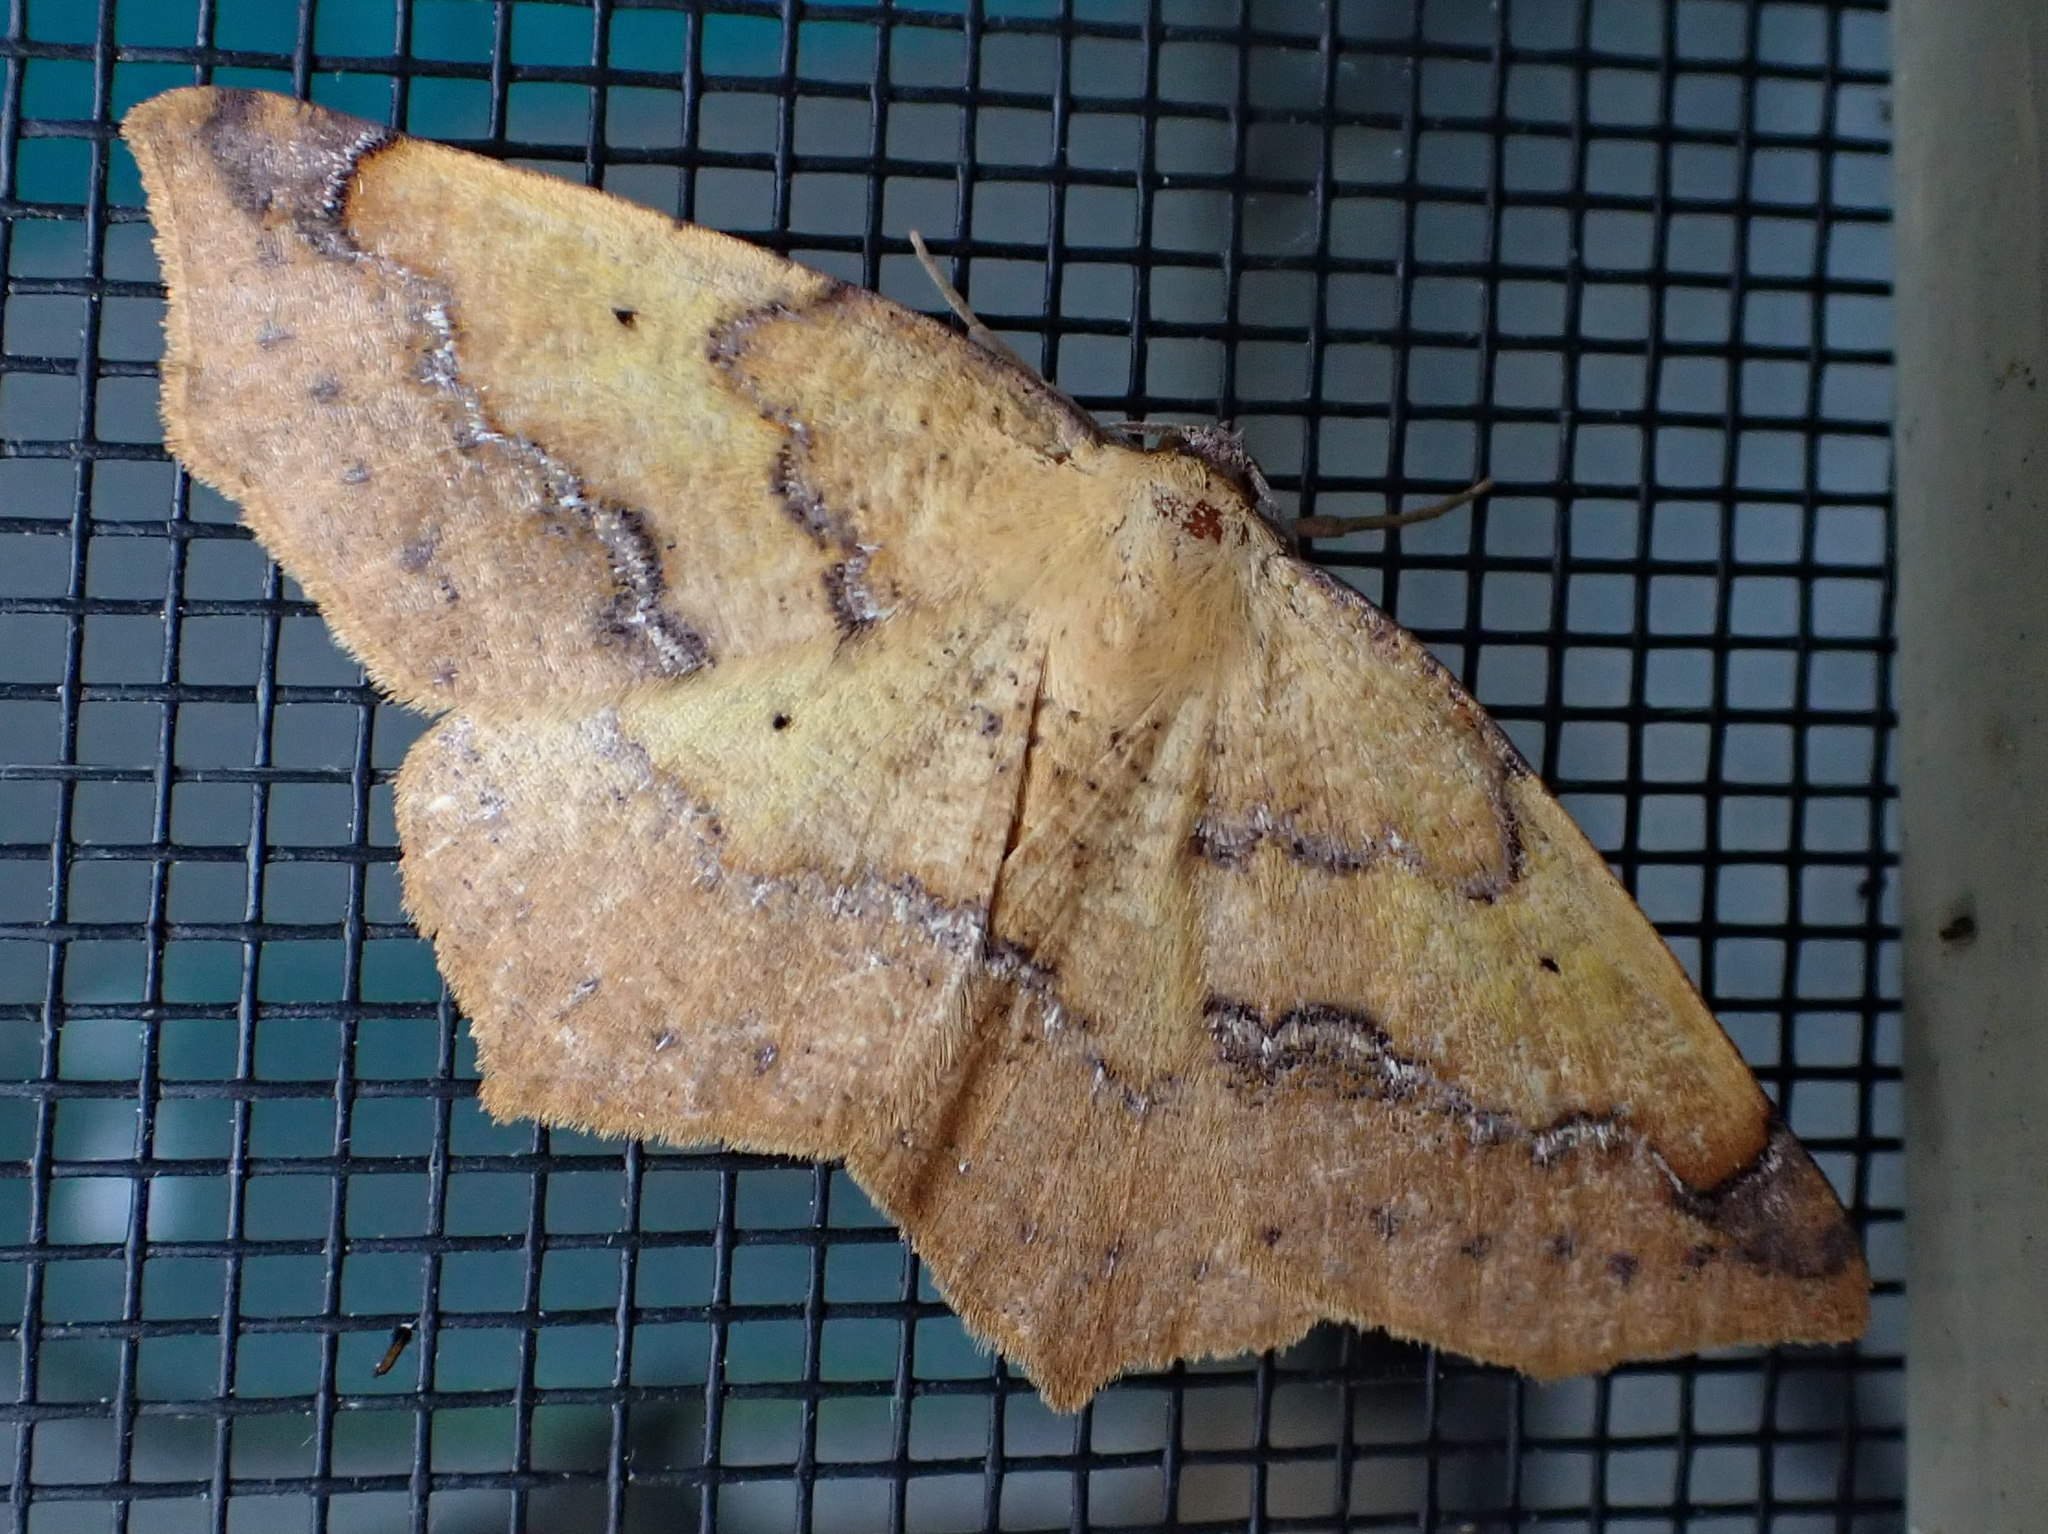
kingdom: Animalia
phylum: Arthropoda
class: Insecta
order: Lepidoptera
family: Geometridae
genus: Antepione
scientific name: Antepione thisoaria
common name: Variable antipione
